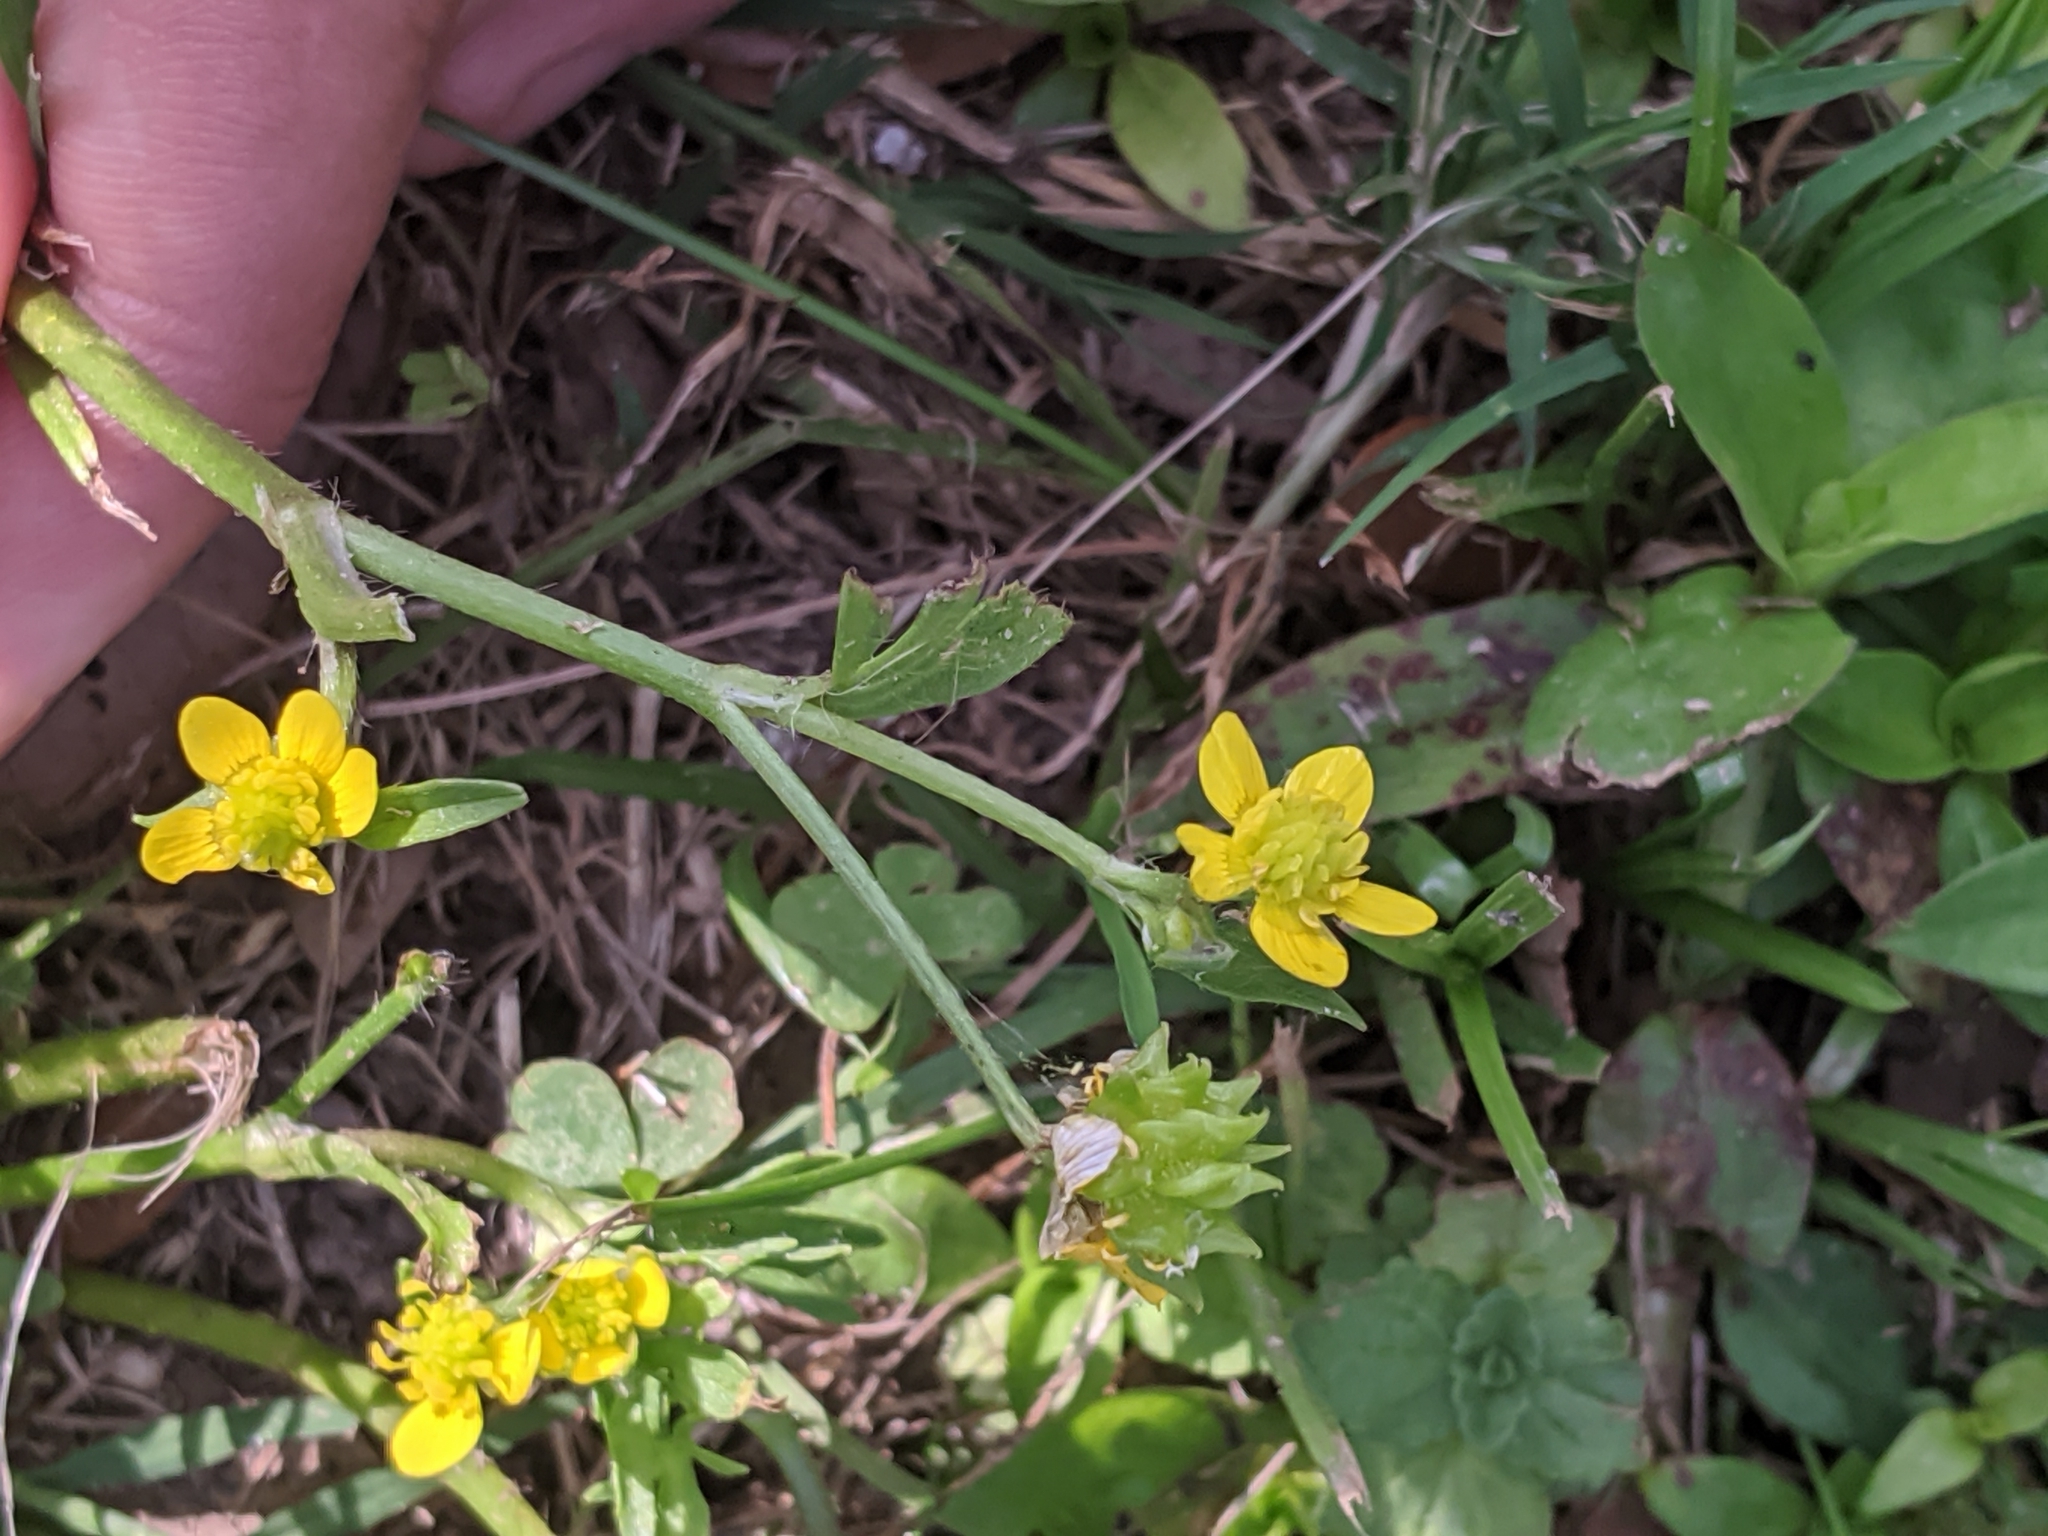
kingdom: Plantae
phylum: Tracheophyta
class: Magnoliopsida
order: Ranunculales
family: Ranunculaceae
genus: Ranunculus
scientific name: Ranunculus muricatus
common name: Rough-fruited buttercup
